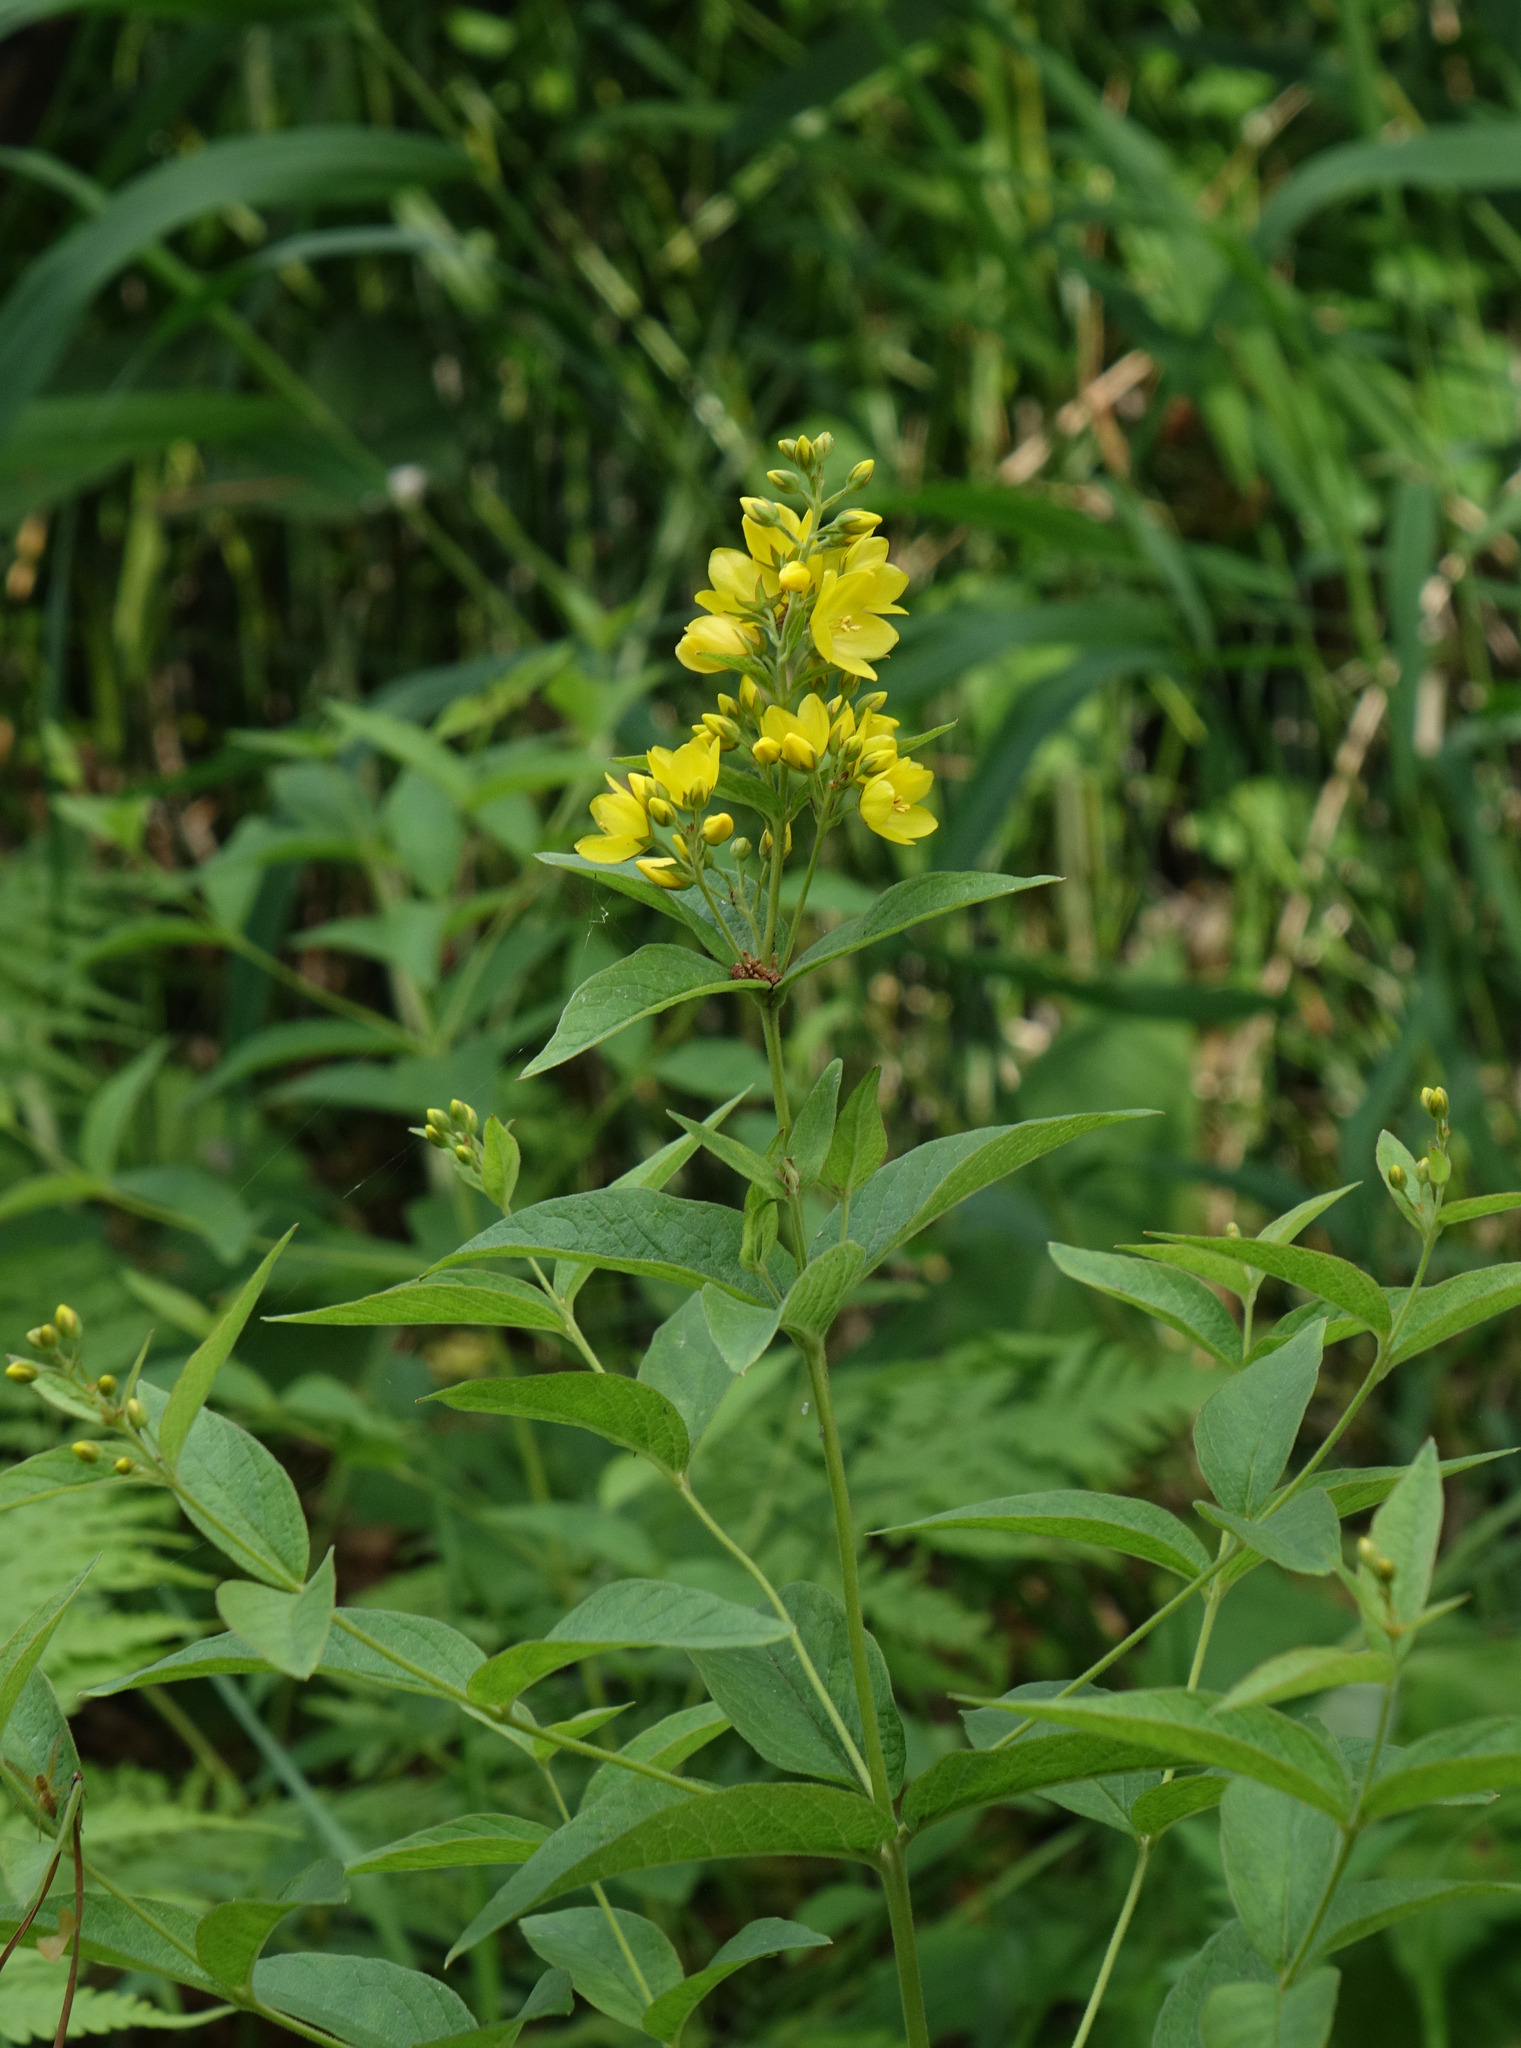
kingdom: Plantae
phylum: Tracheophyta
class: Magnoliopsida
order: Ericales
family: Primulaceae
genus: Lysimachia
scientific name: Lysimachia vulgaris
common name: Yellow loosestrife
